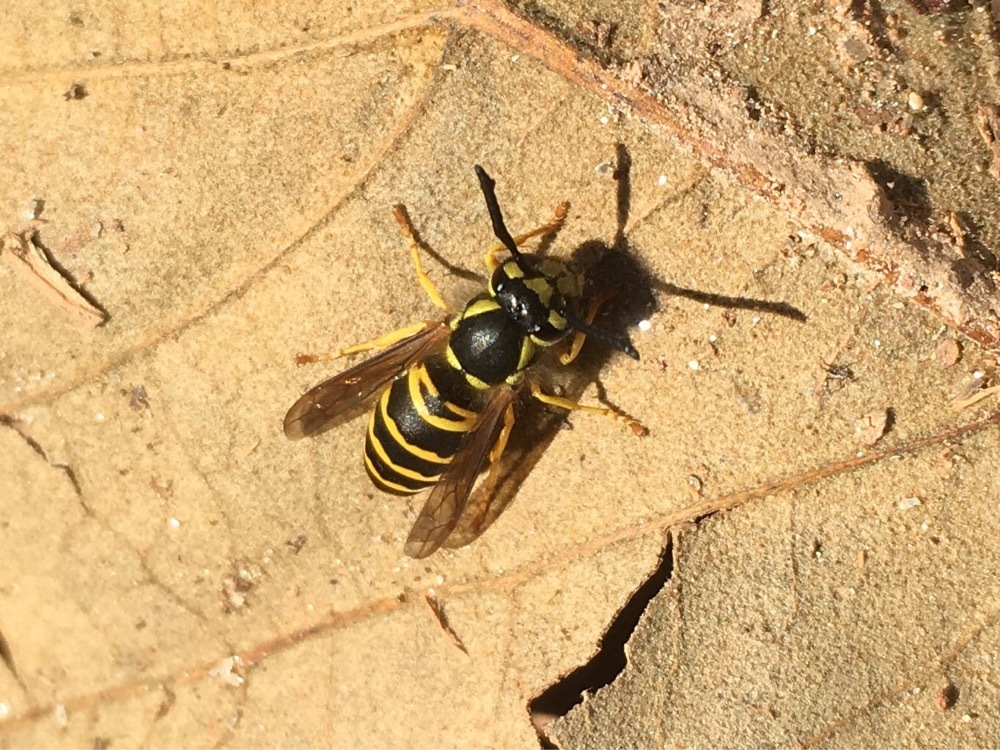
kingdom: Animalia
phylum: Arthropoda
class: Insecta
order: Hymenoptera
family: Vespidae
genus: Vespula
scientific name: Vespula maculifrons
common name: Eastern yellowjacket
